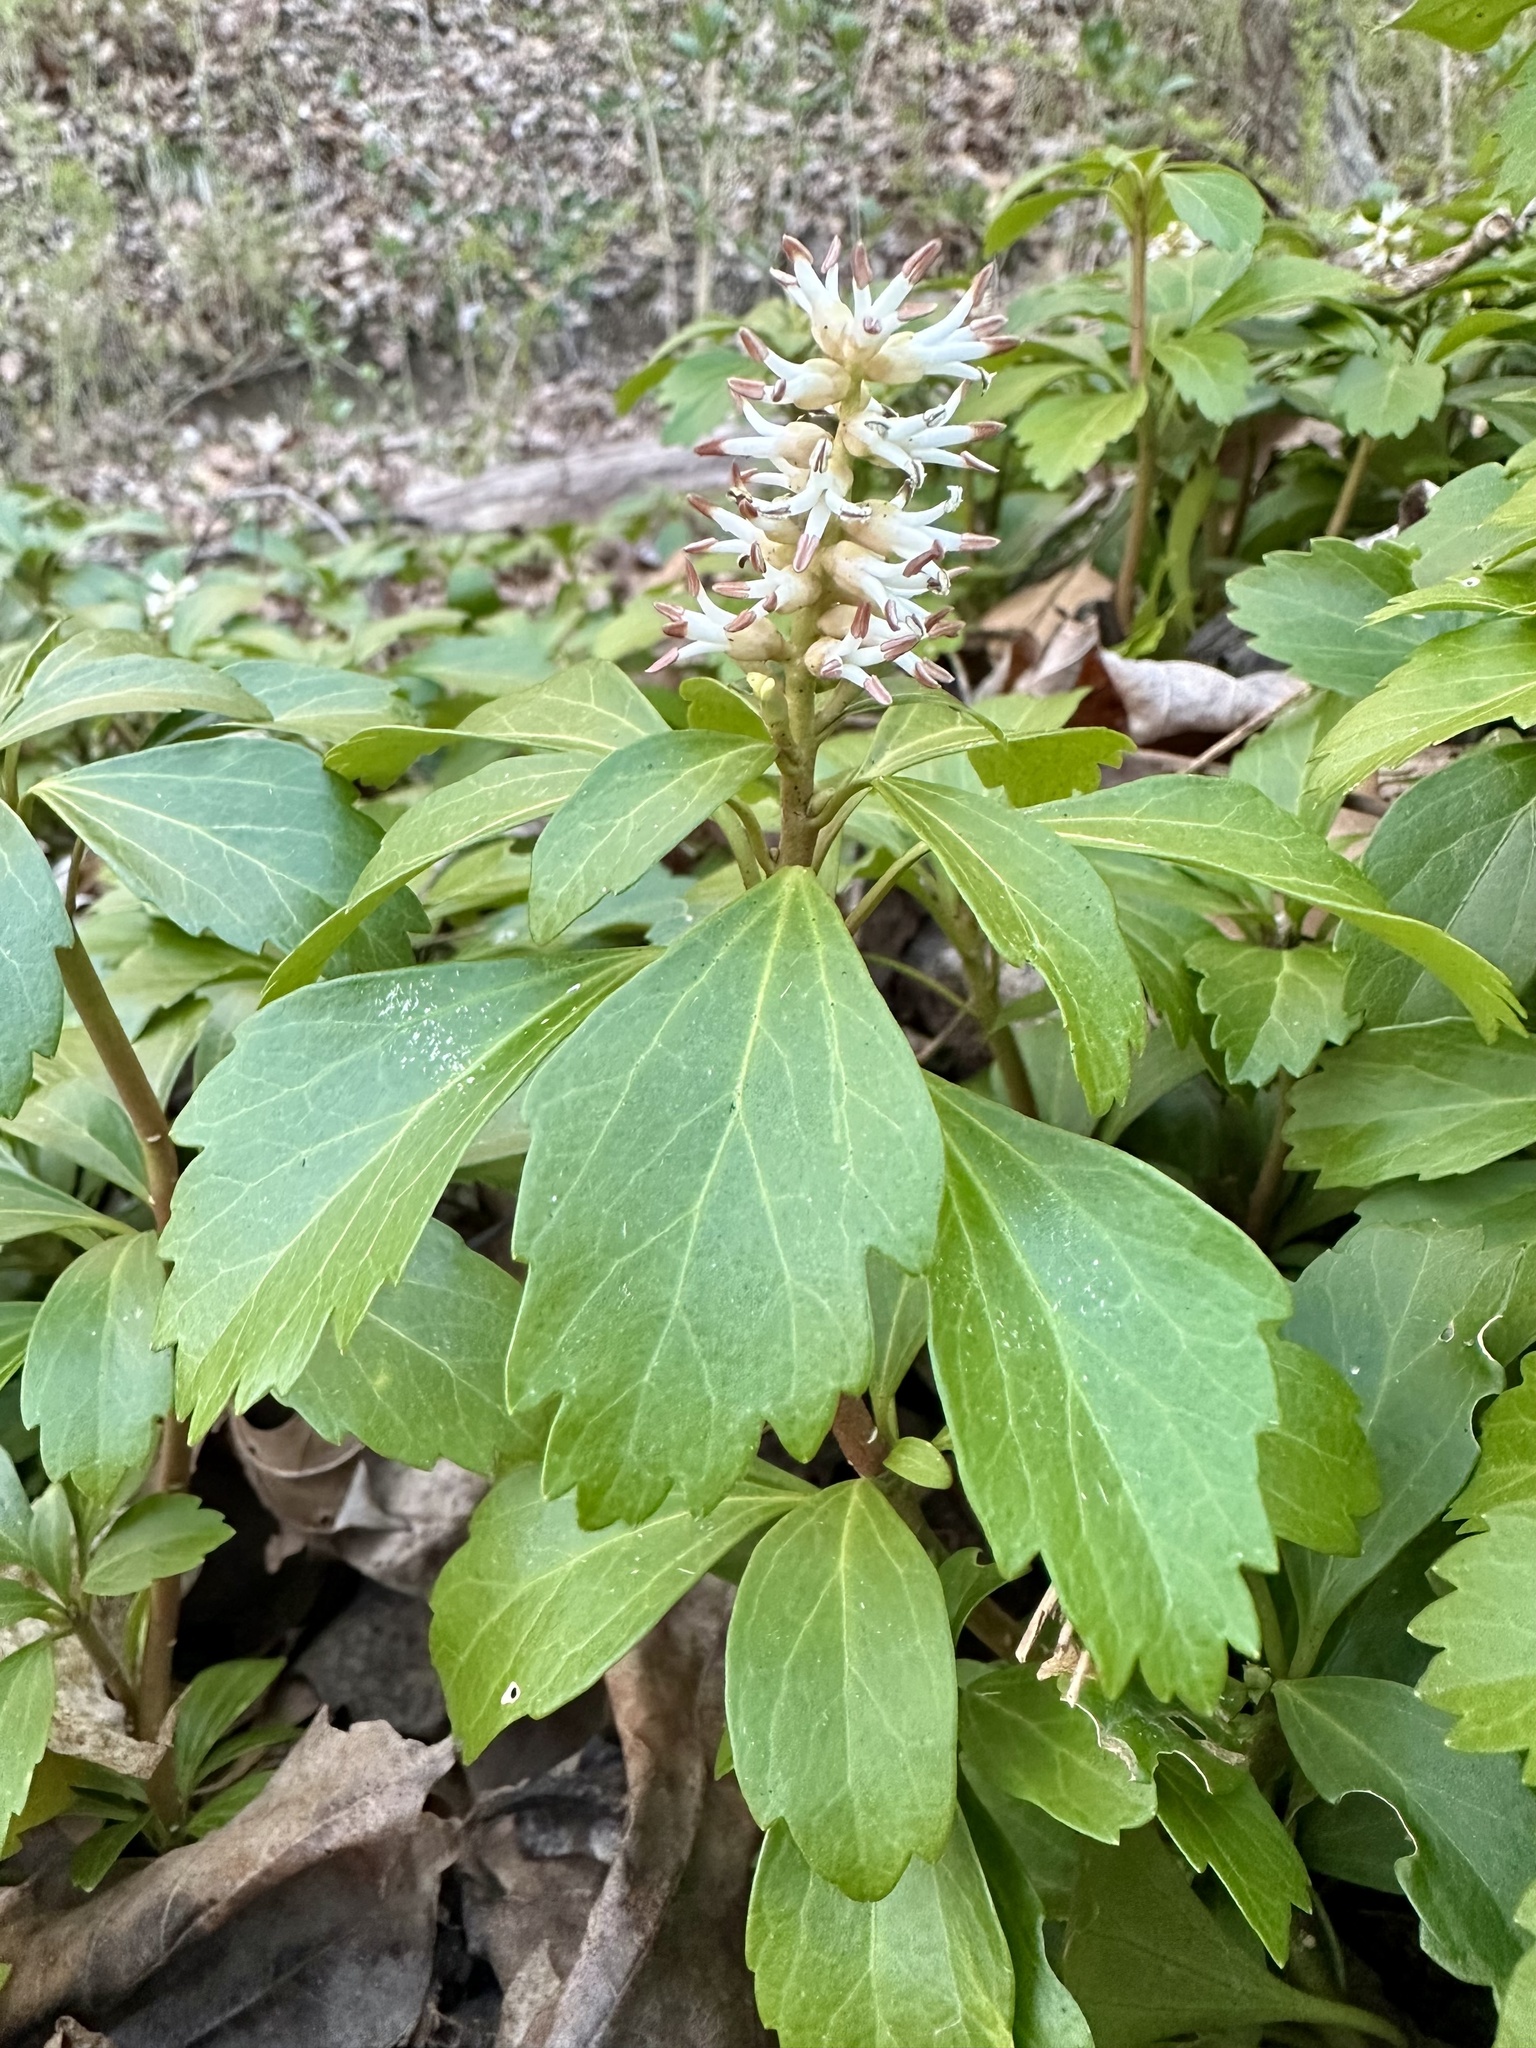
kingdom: Plantae
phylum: Tracheophyta
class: Magnoliopsida
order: Buxales
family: Buxaceae
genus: Pachysandra
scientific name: Pachysandra terminalis
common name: Japanese pachysandra
